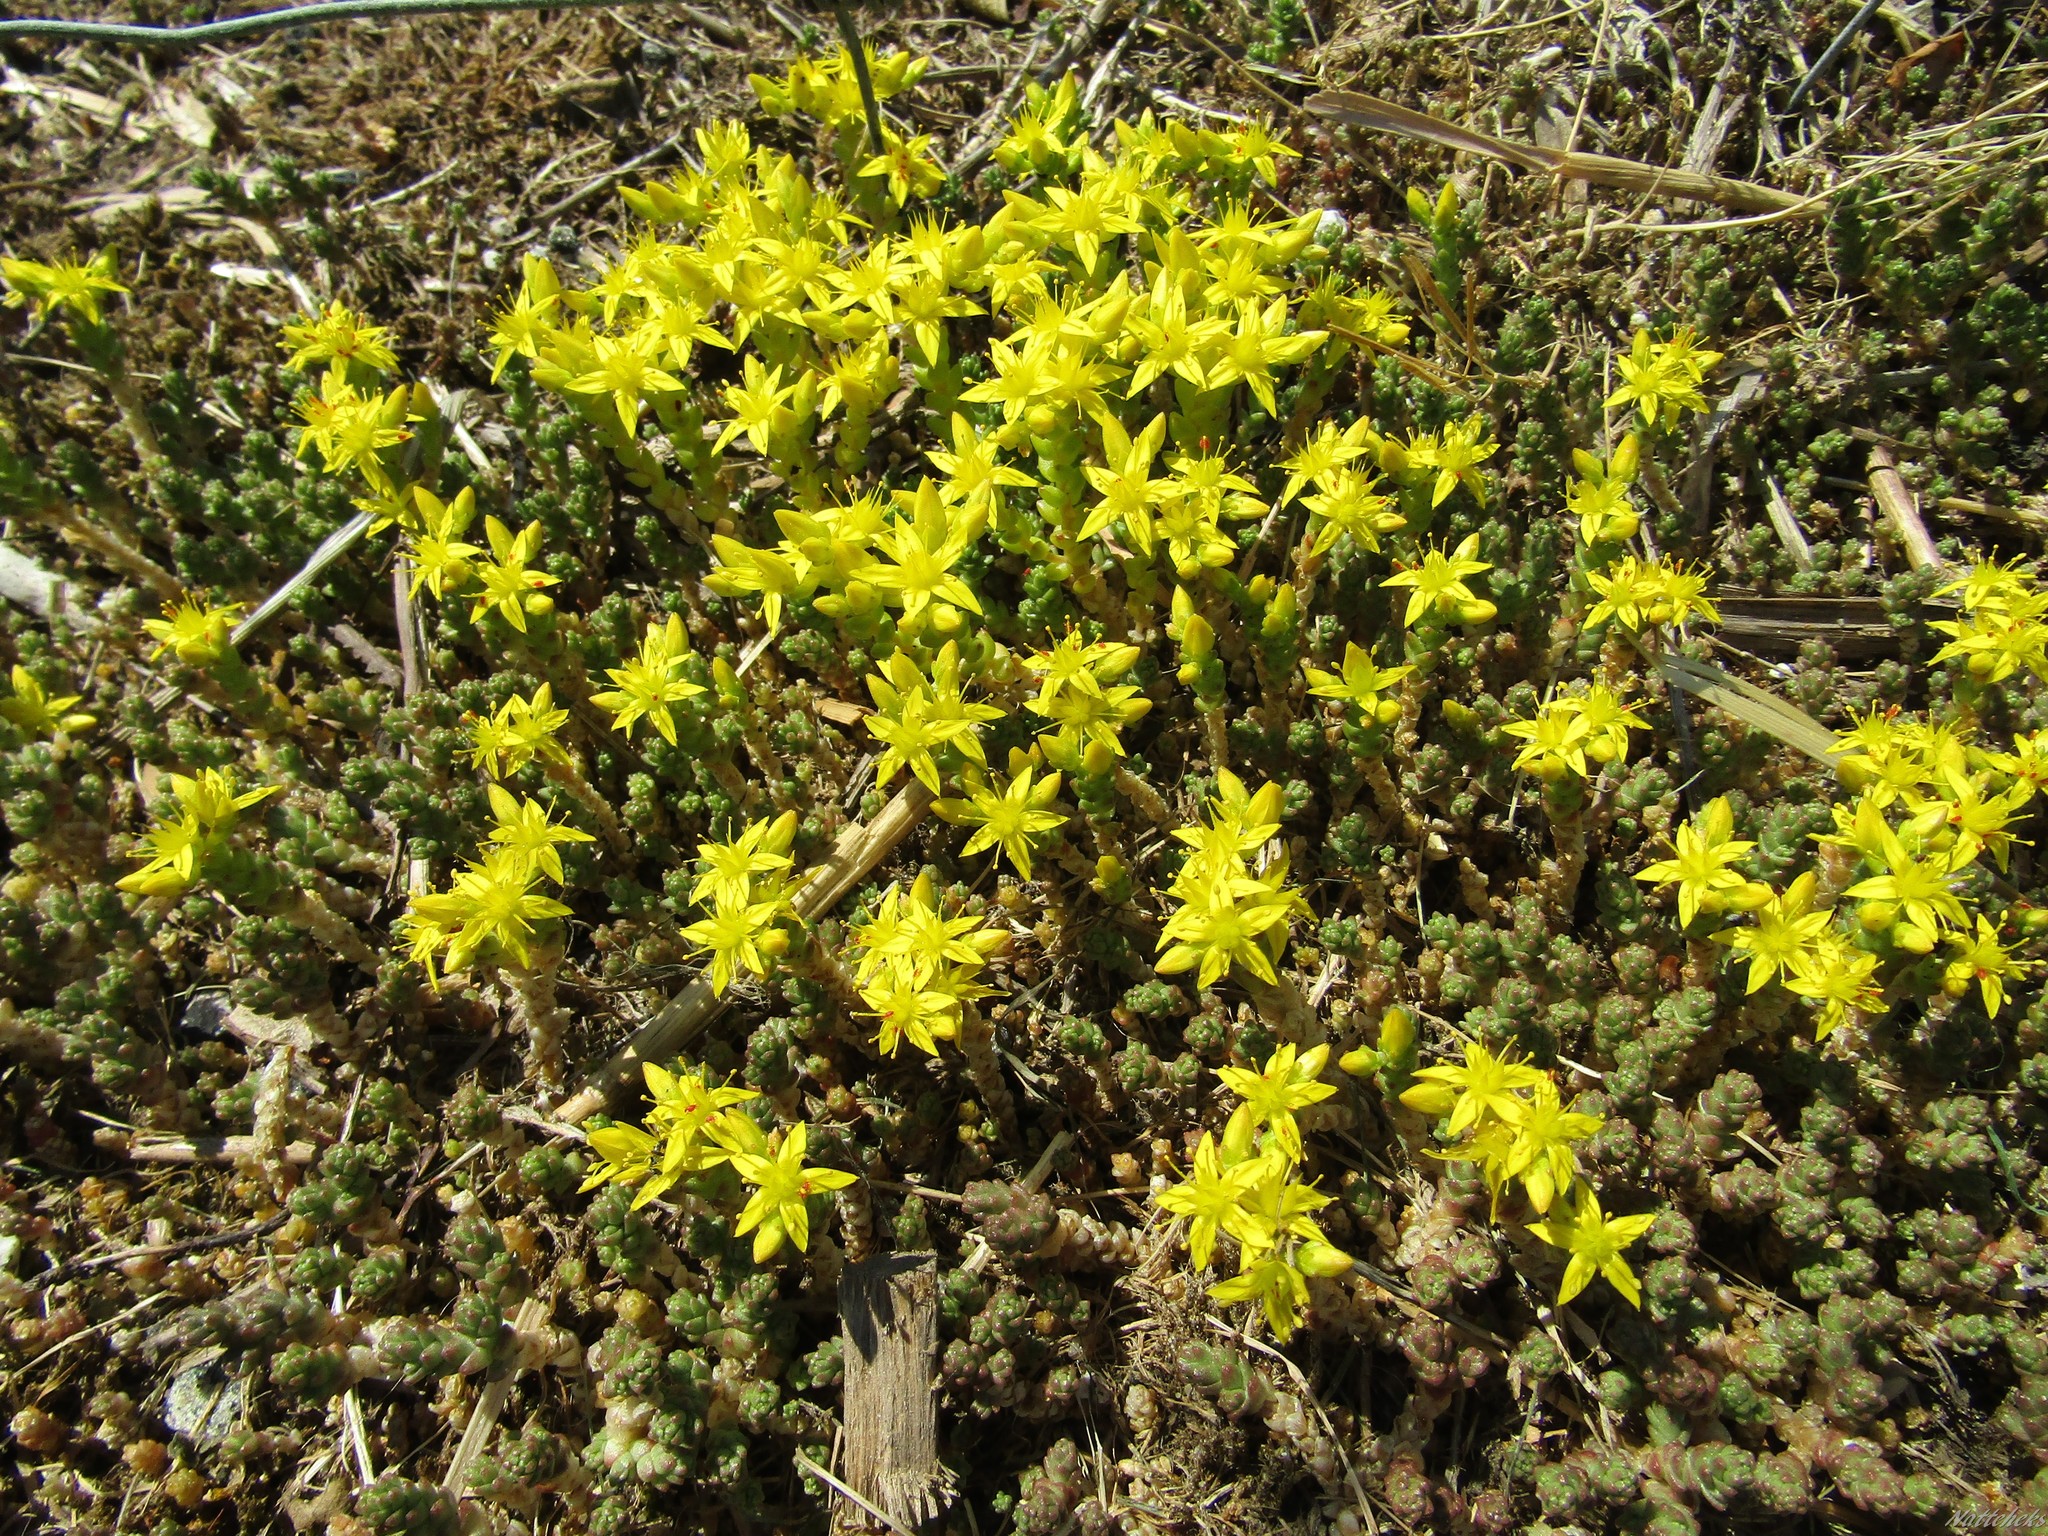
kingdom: Plantae
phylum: Tracheophyta
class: Magnoliopsida
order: Saxifragales
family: Crassulaceae
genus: Sedum
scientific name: Sedum acre
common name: Biting stonecrop
